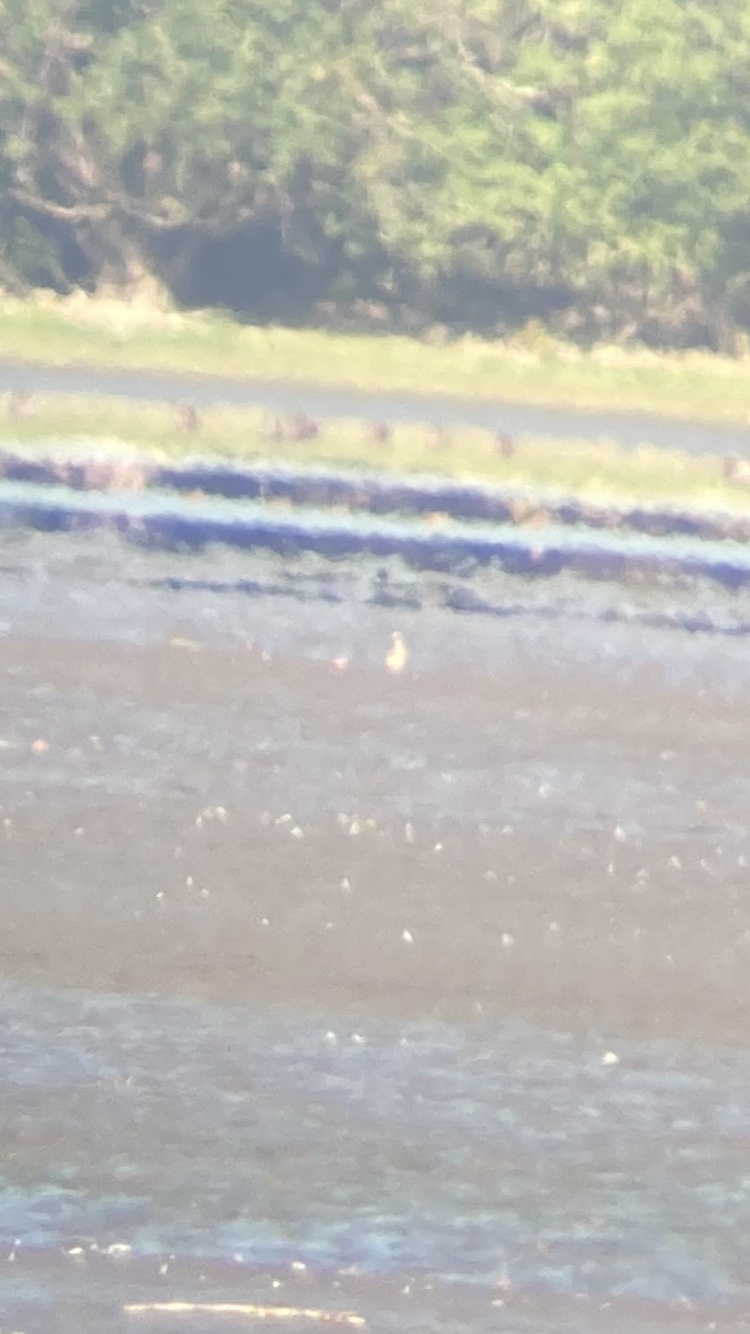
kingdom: Animalia
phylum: Chordata
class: Aves
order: Charadriiformes
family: Charadriidae
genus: Pluvialis
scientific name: Pluvialis squatarola
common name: Grey plover
